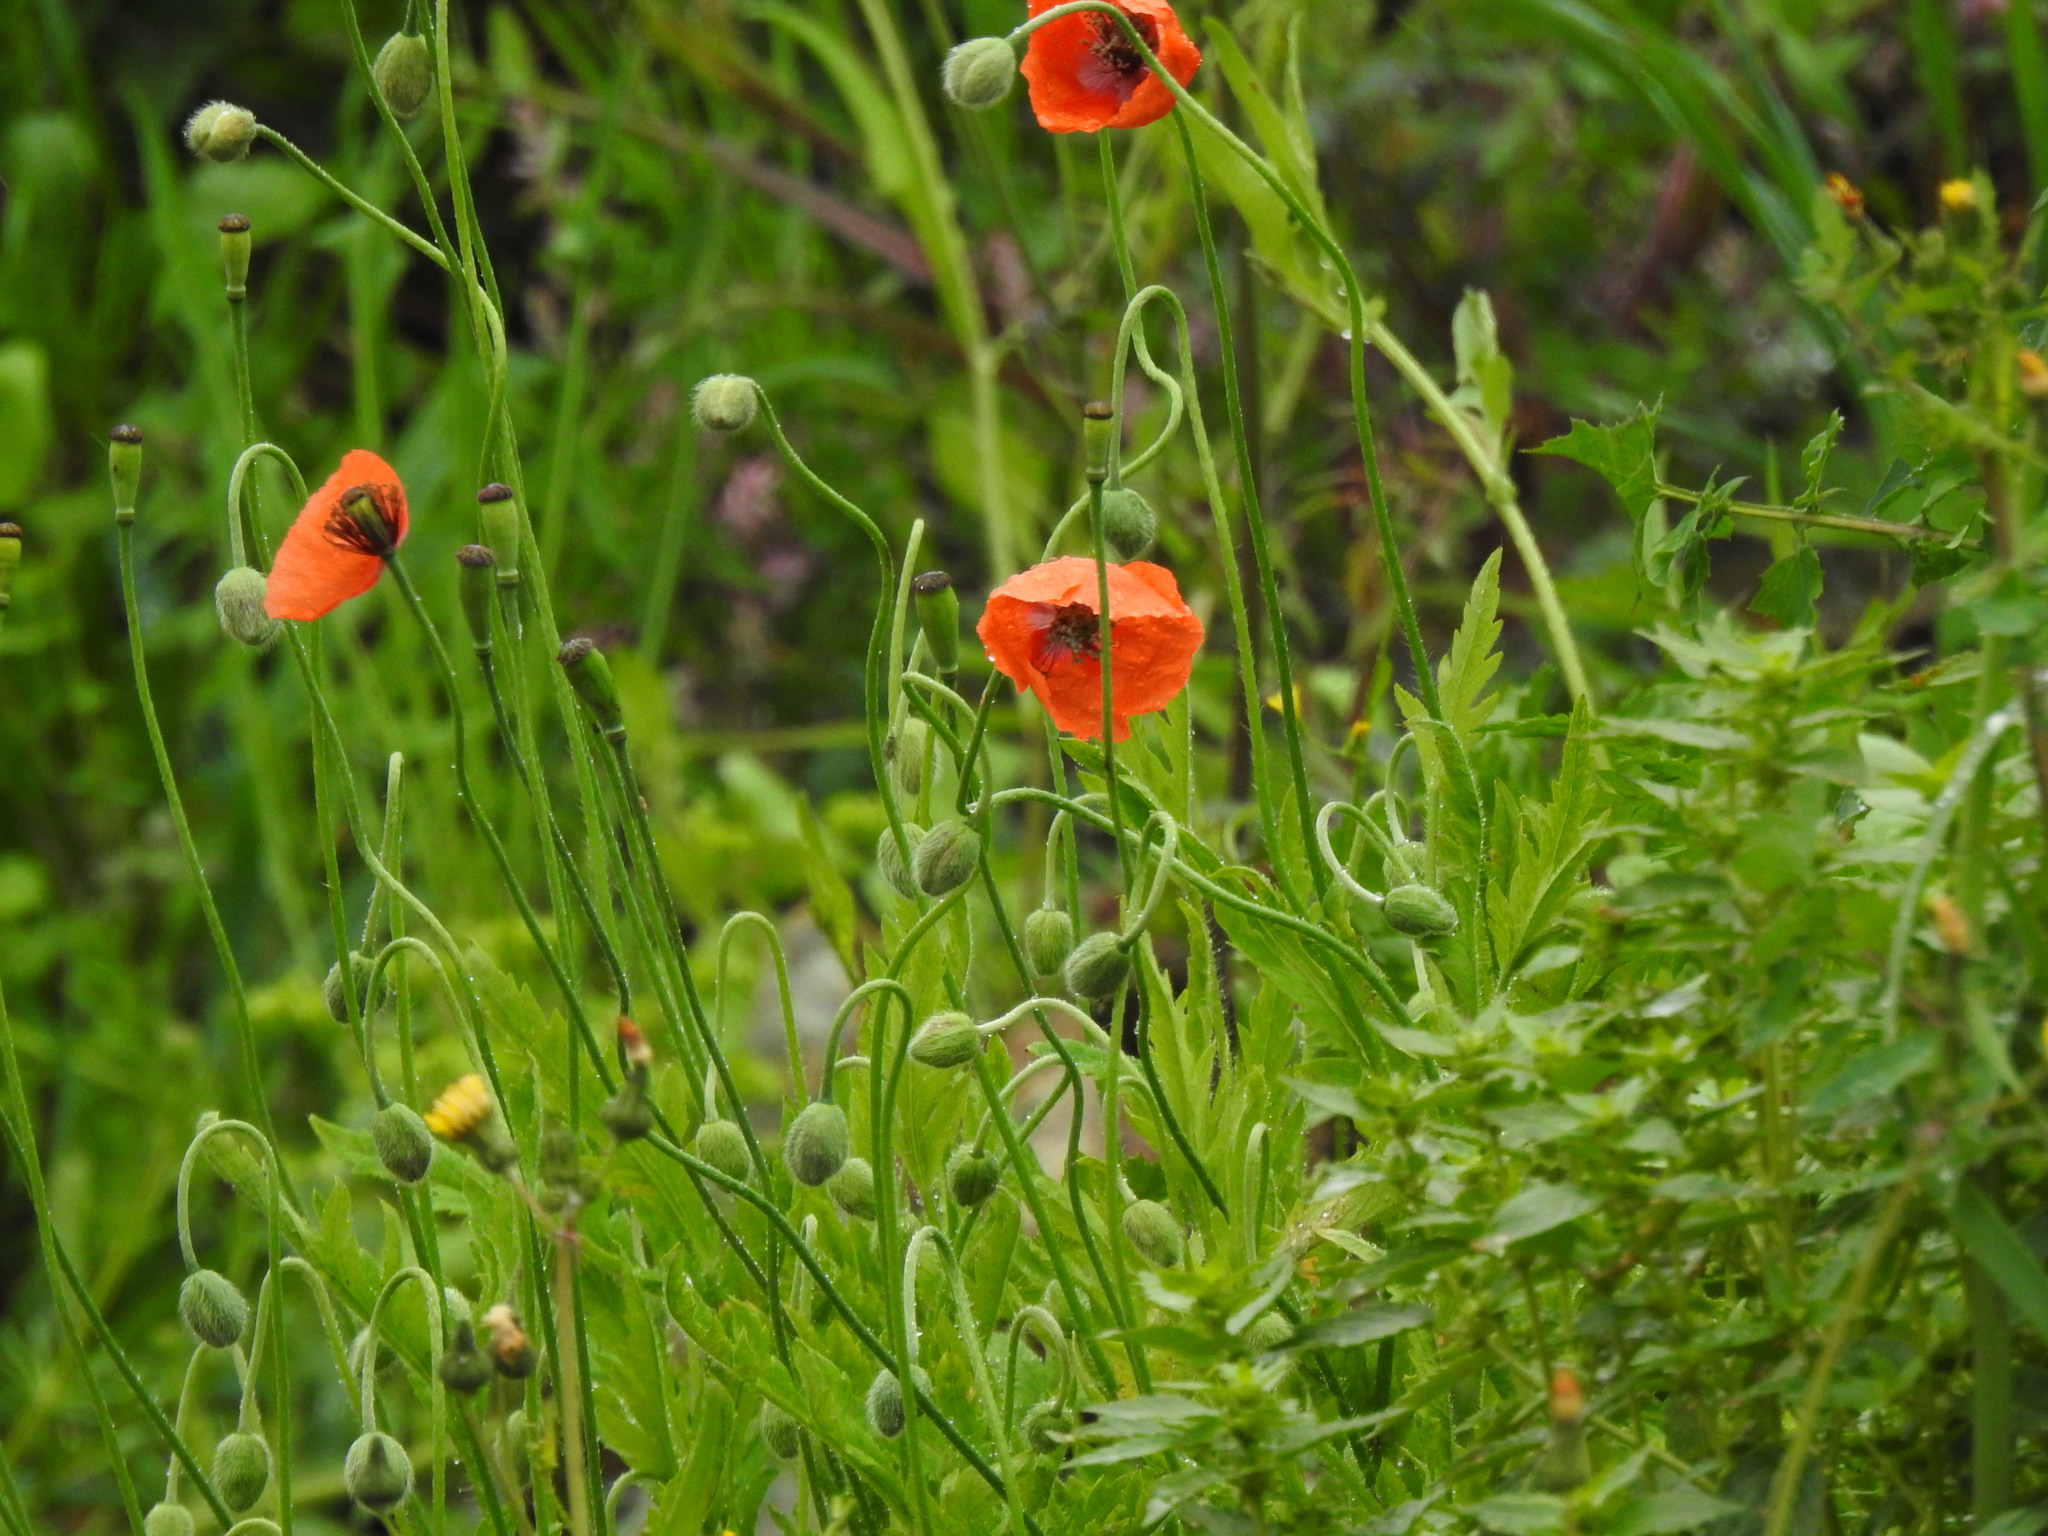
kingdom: Plantae
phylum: Tracheophyta
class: Magnoliopsida
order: Ranunculales
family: Papaveraceae
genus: Papaver
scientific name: Papaver dubium
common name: Long-headed poppy
